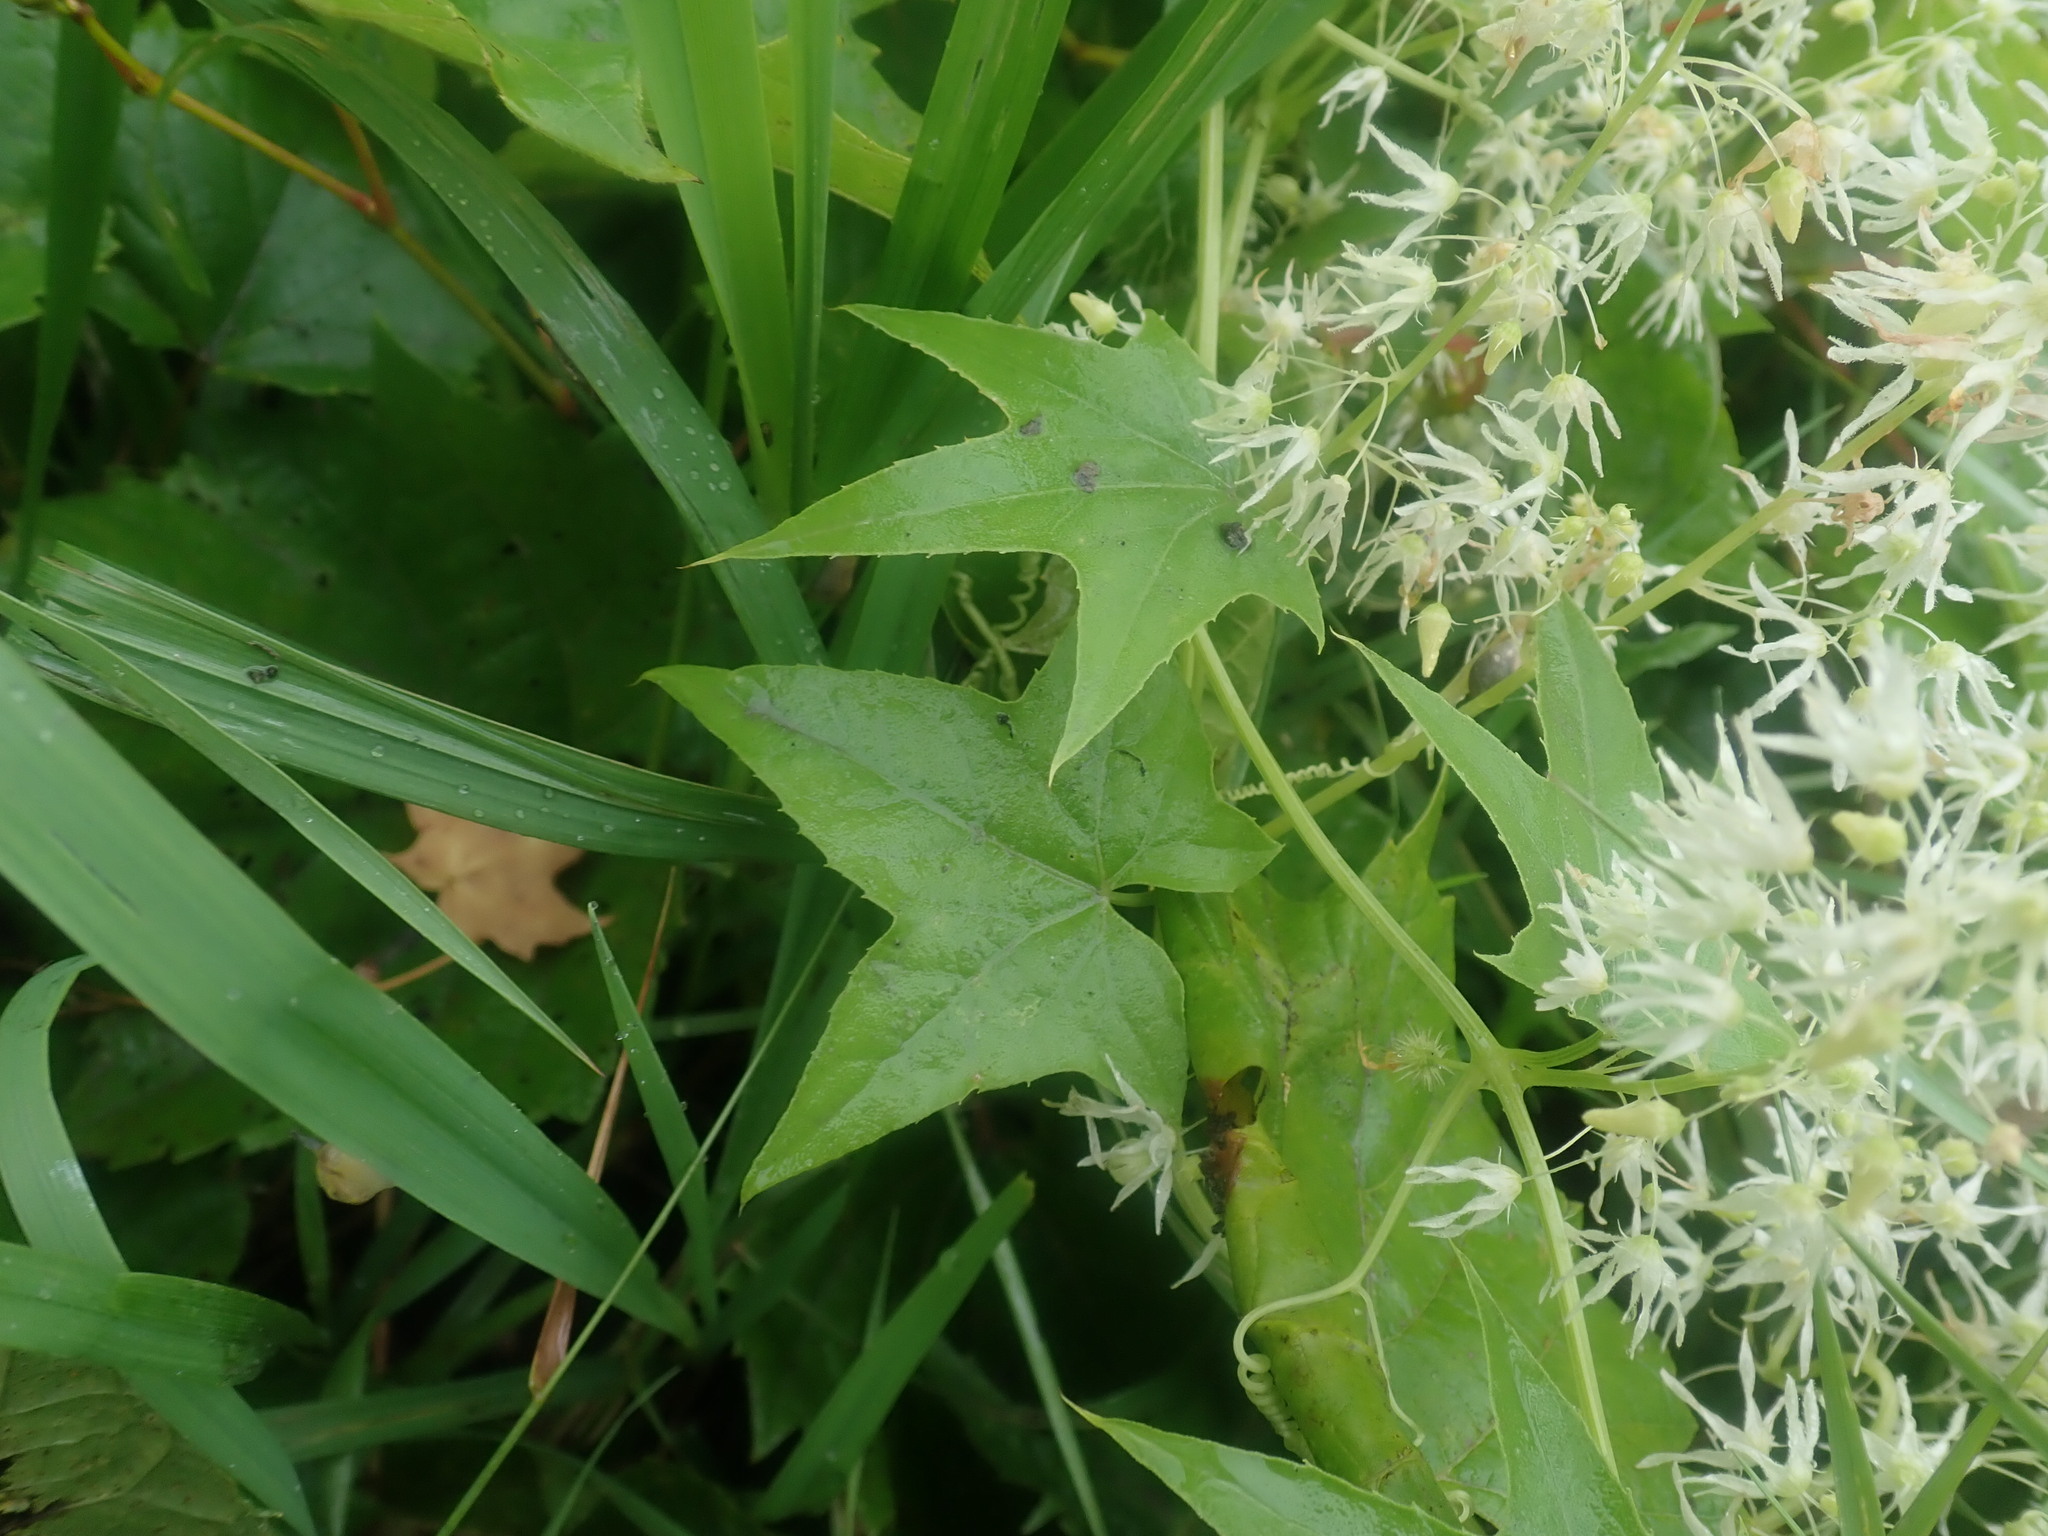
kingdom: Plantae
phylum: Tracheophyta
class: Magnoliopsida
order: Cucurbitales
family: Cucurbitaceae
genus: Echinocystis
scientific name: Echinocystis lobata
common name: Wild cucumber
